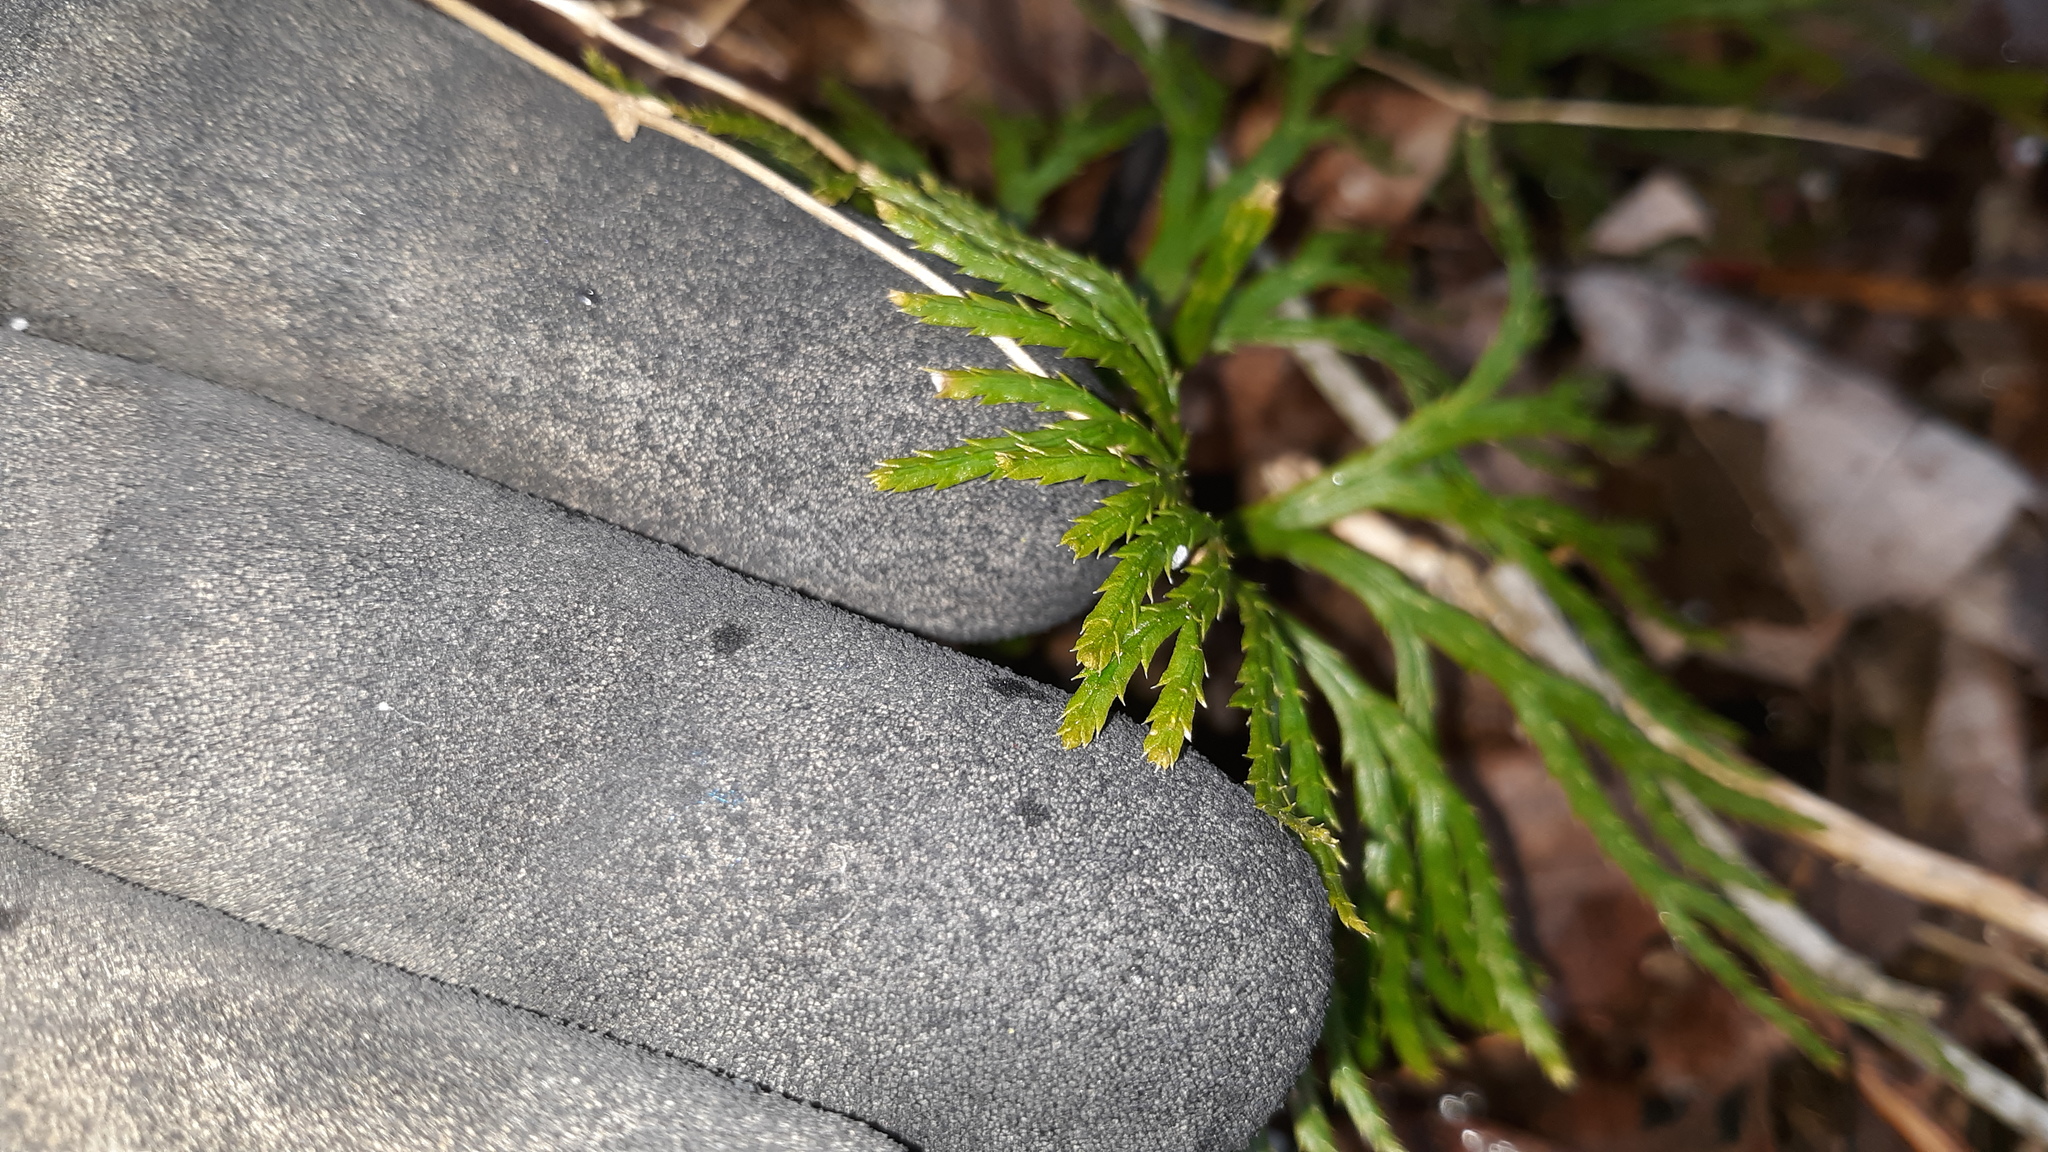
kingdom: Plantae
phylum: Tracheophyta
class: Lycopodiopsida
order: Lycopodiales
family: Lycopodiaceae
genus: Diphasiastrum
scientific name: Diphasiastrum digitatum
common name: Southern running-pine
